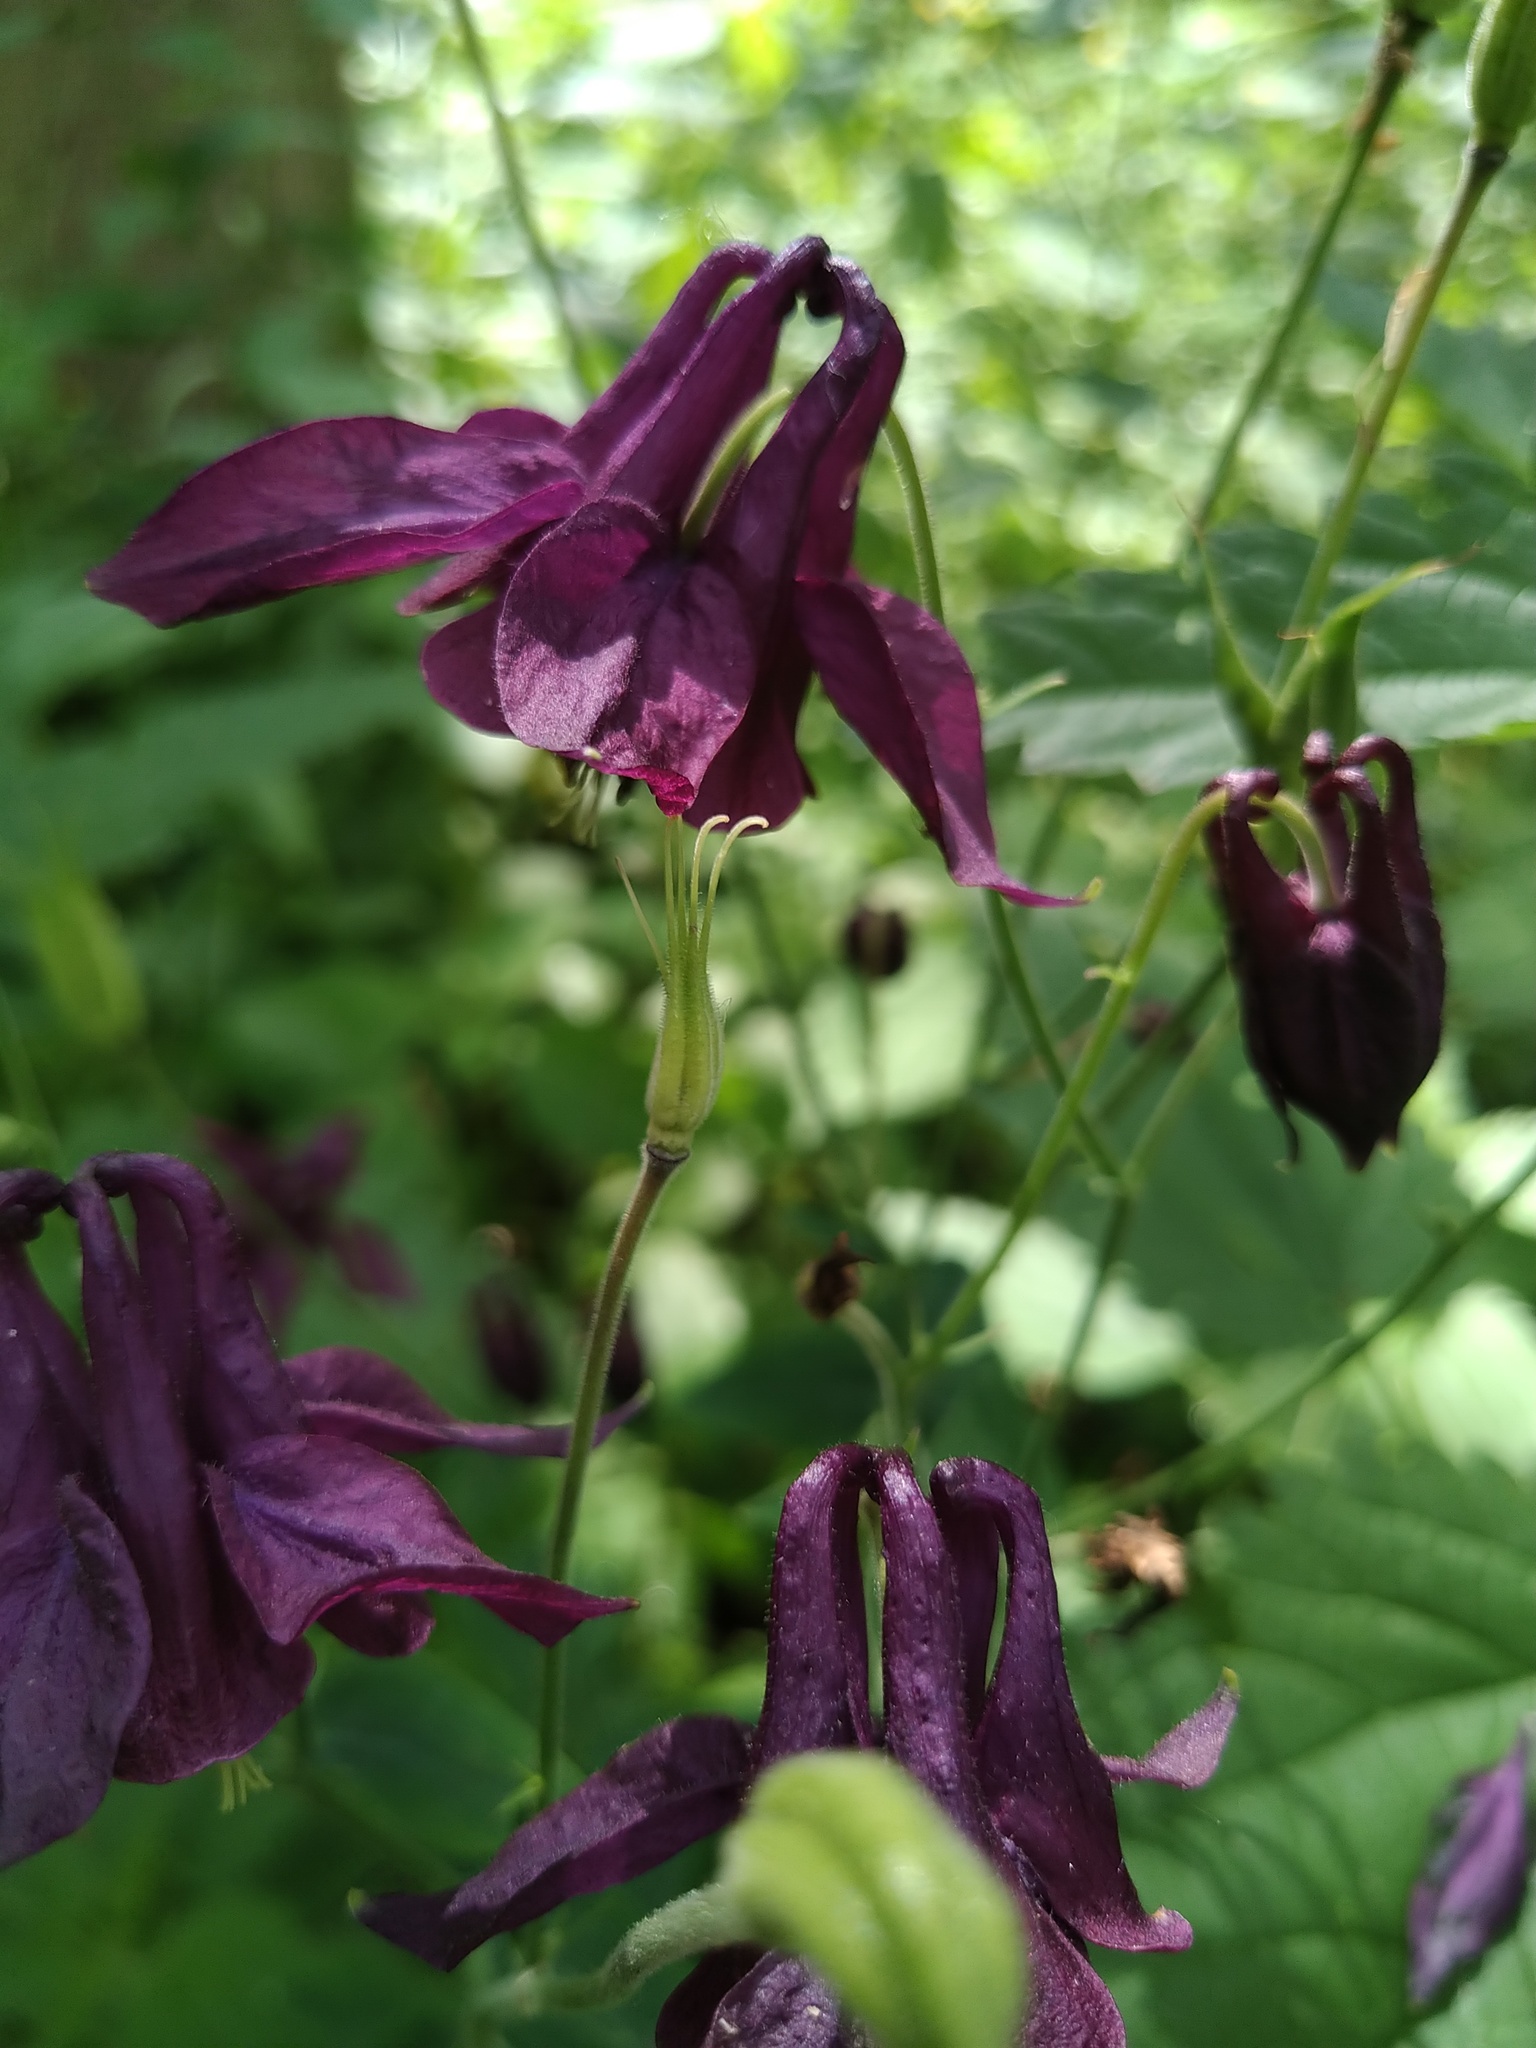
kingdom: Plantae
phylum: Tracheophyta
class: Magnoliopsida
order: Ranunculales
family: Ranunculaceae
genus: Aquilegia
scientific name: Aquilegia vulgaris
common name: Columbine
